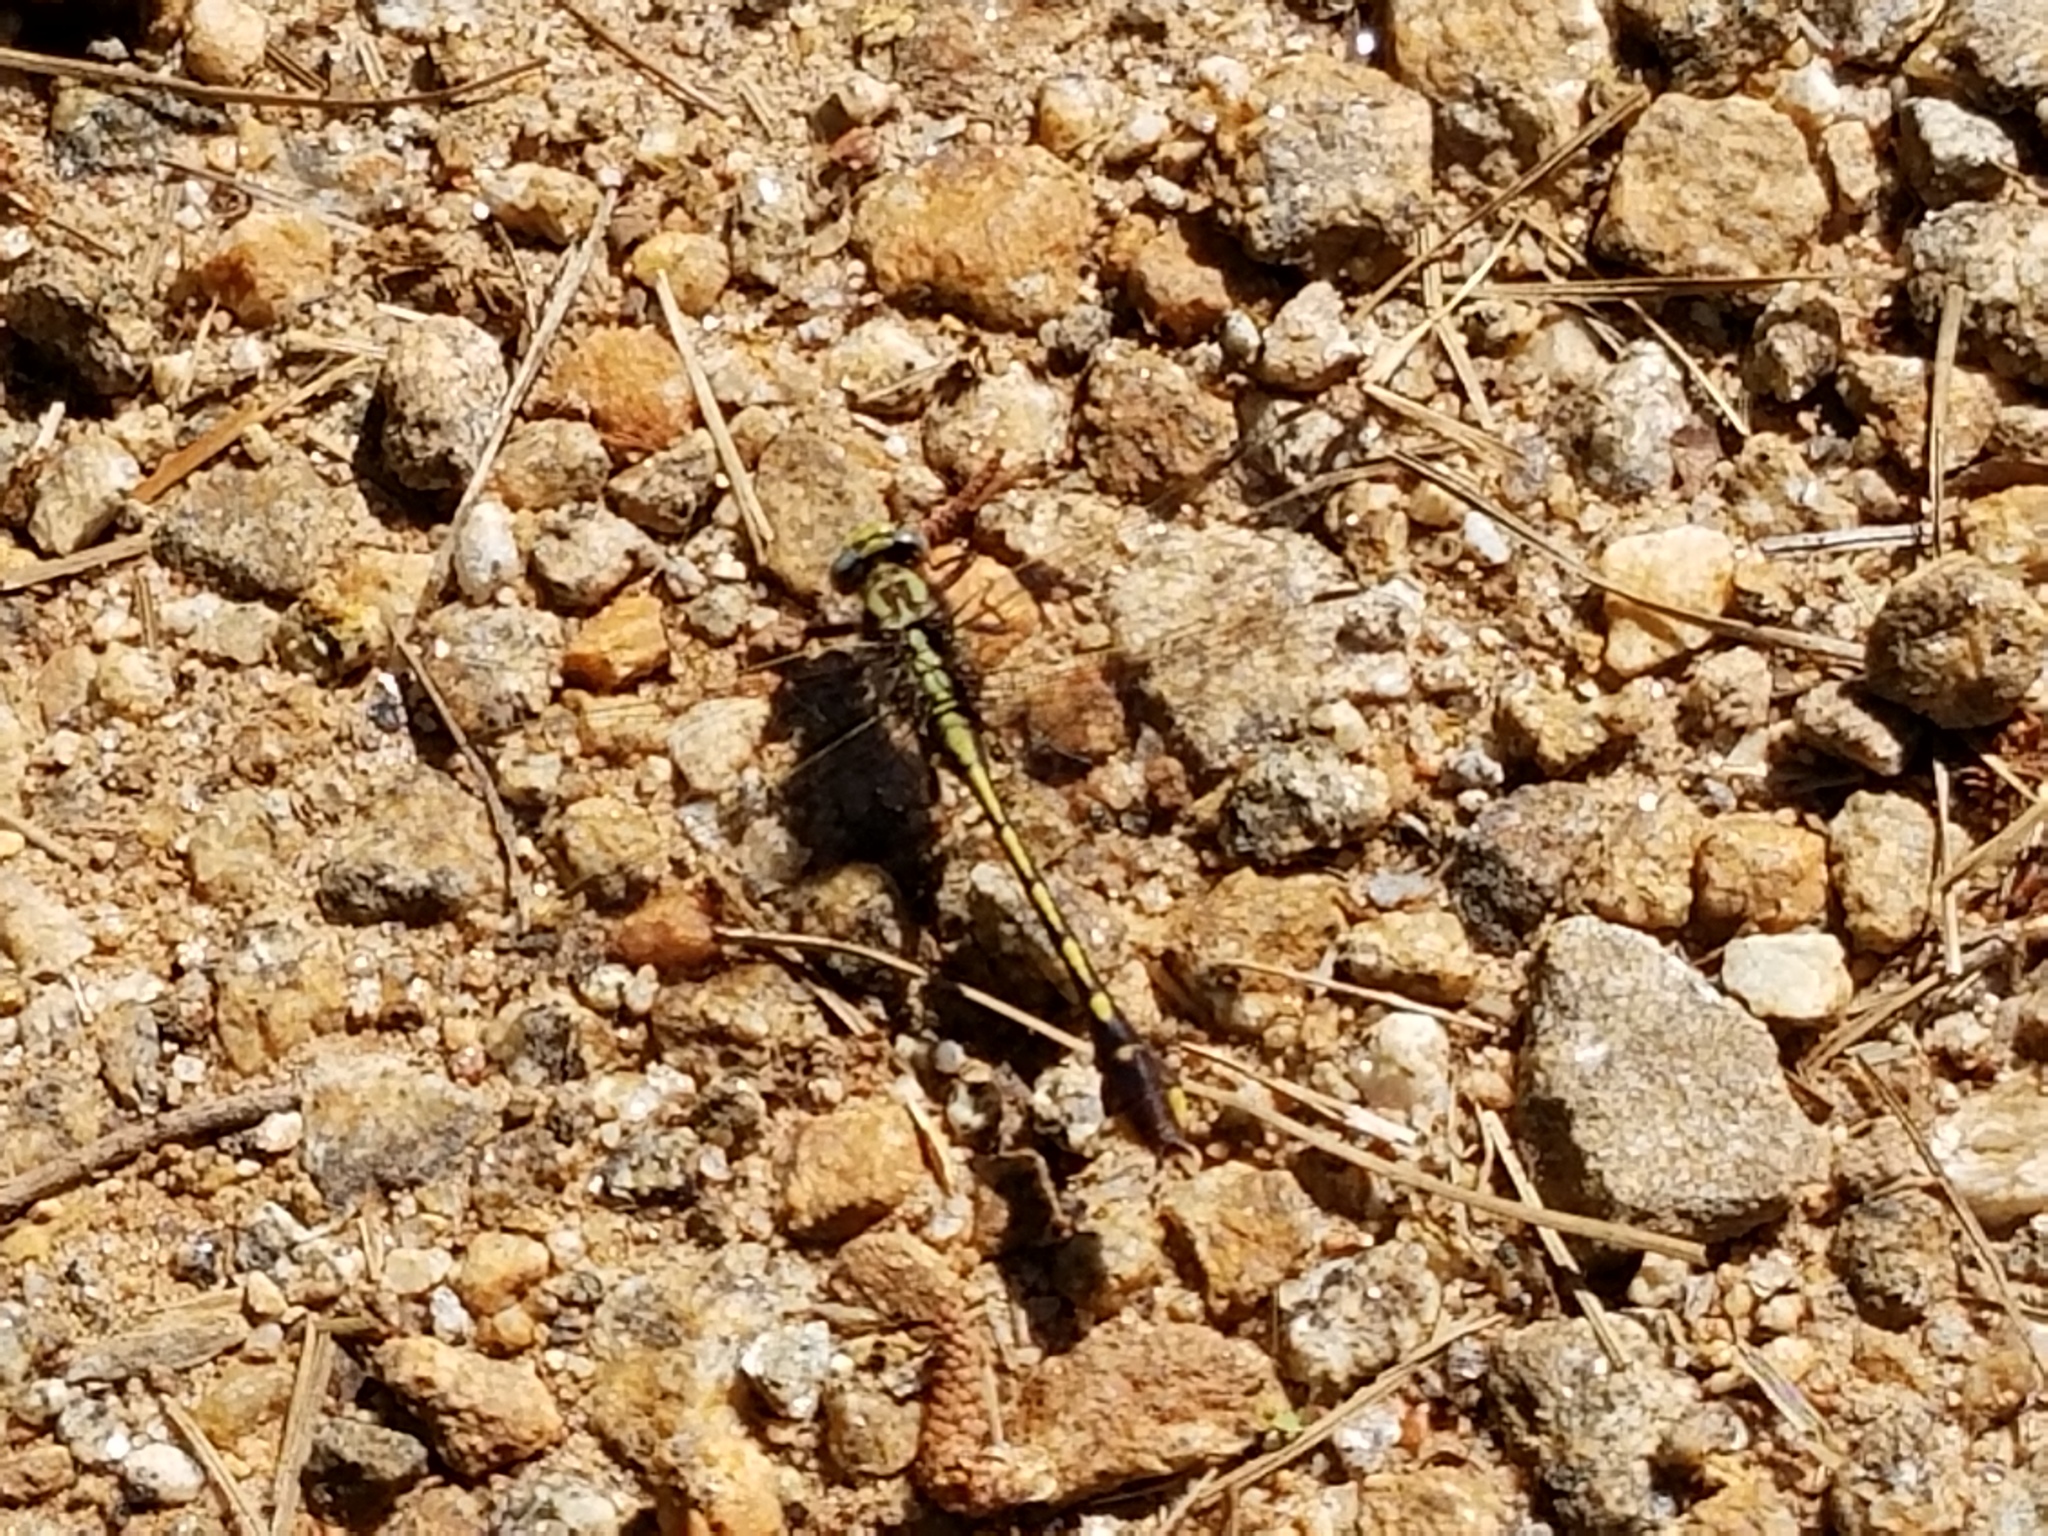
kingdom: Animalia
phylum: Arthropoda
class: Insecta
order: Odonata
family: Gomphidae
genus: Gomphurus
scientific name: Gomphurus hybridus
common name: Cocoa clubtail
